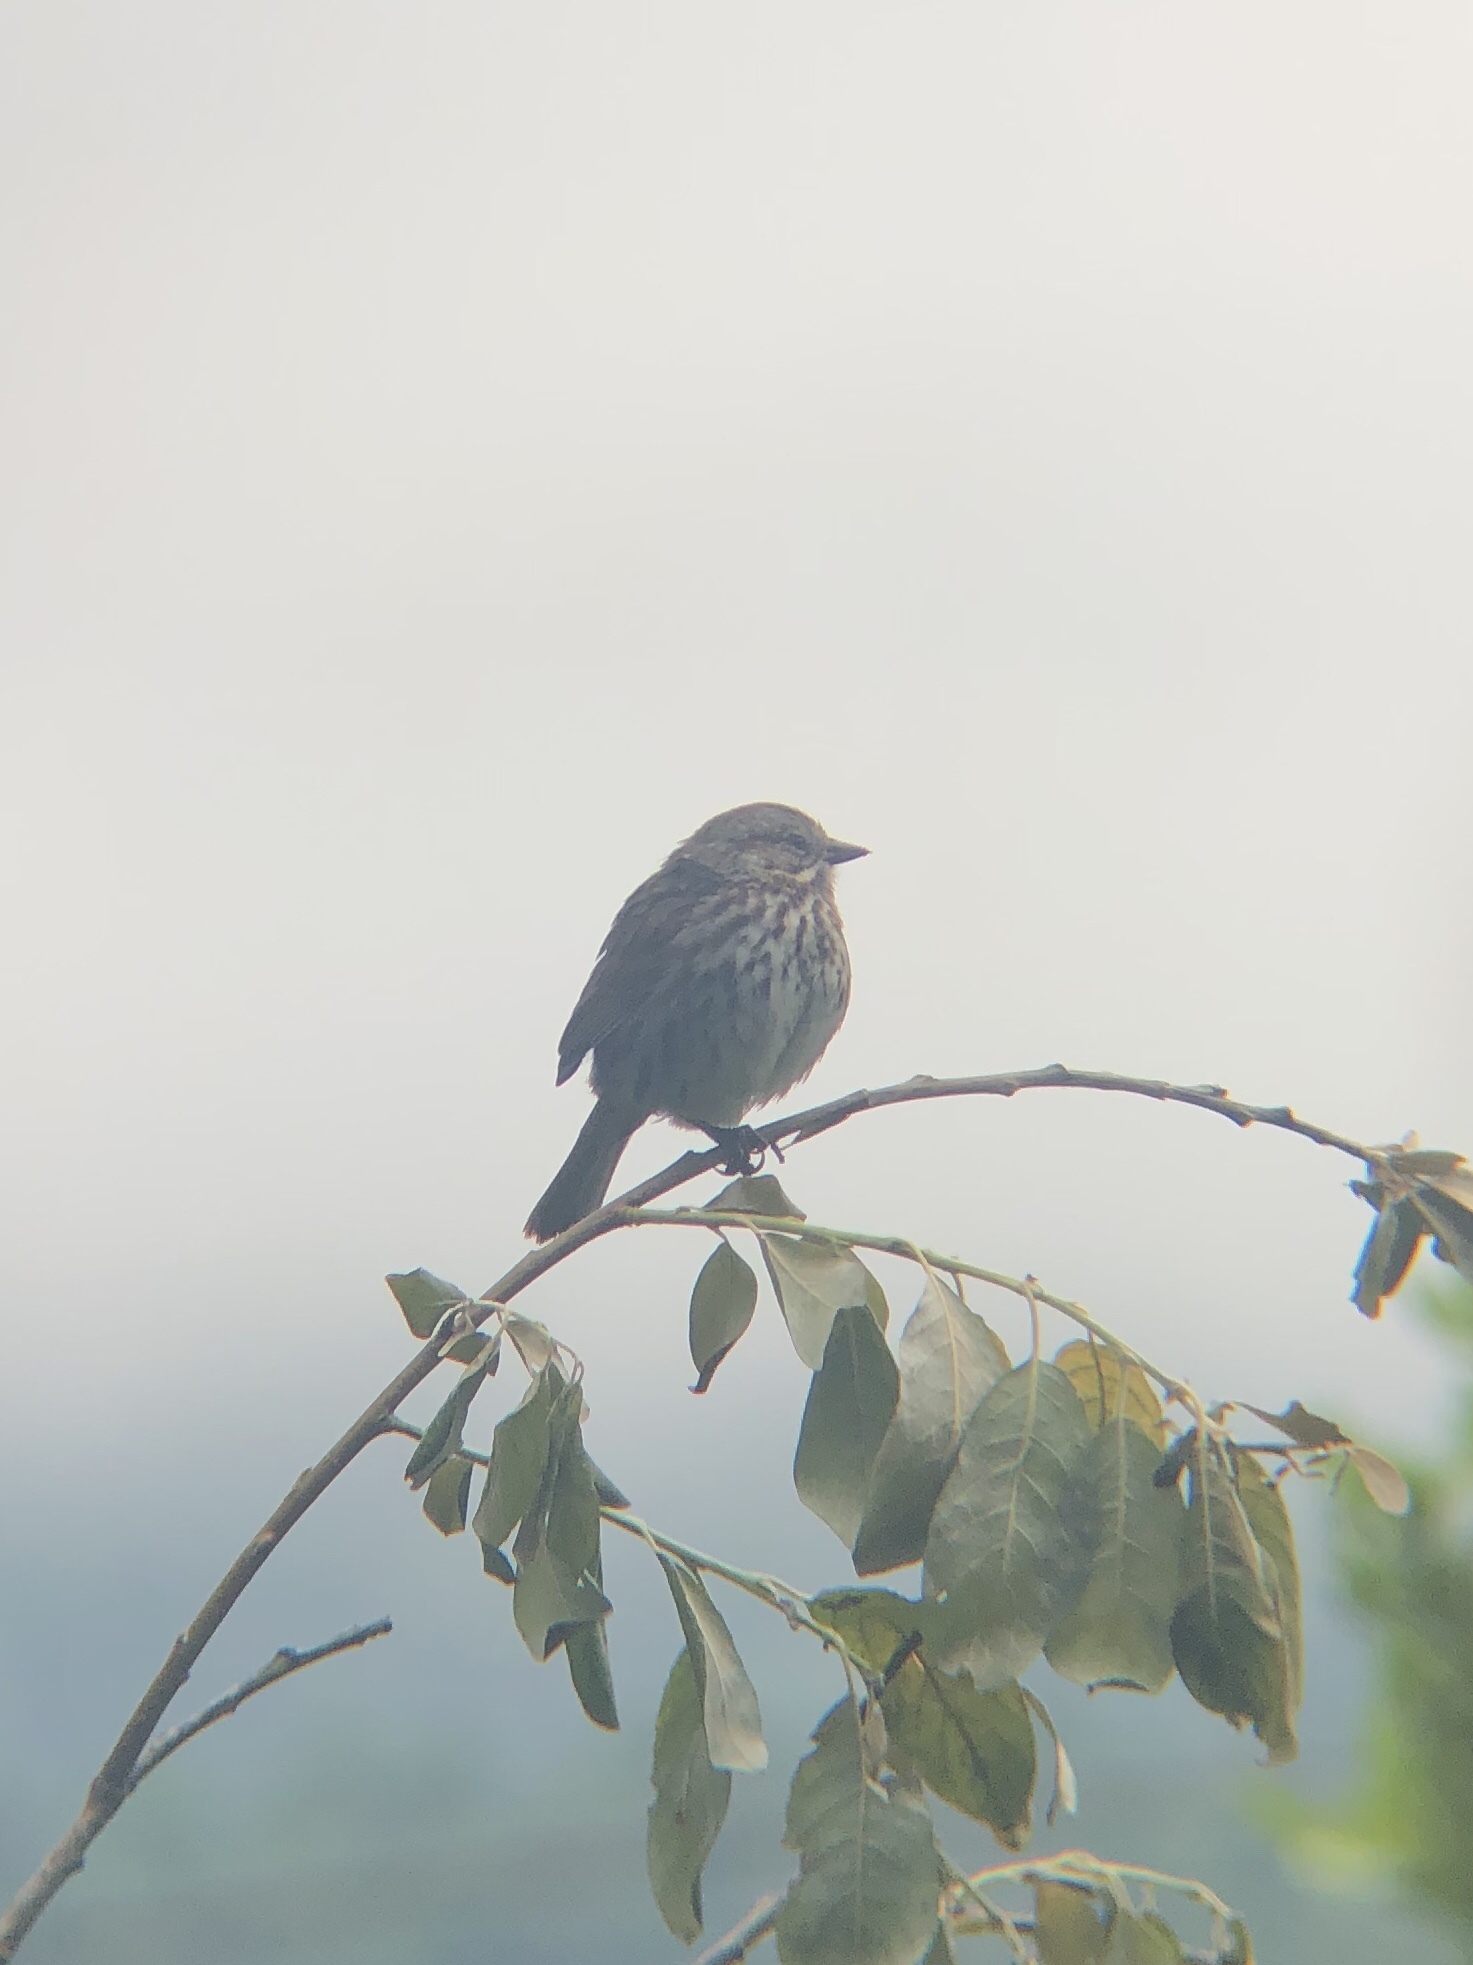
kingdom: Animalia
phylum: Chordata
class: Aves
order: Passeriformes
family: Passerellidae
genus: Melospiza
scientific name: Melospiza melodia
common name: Song sparrow
